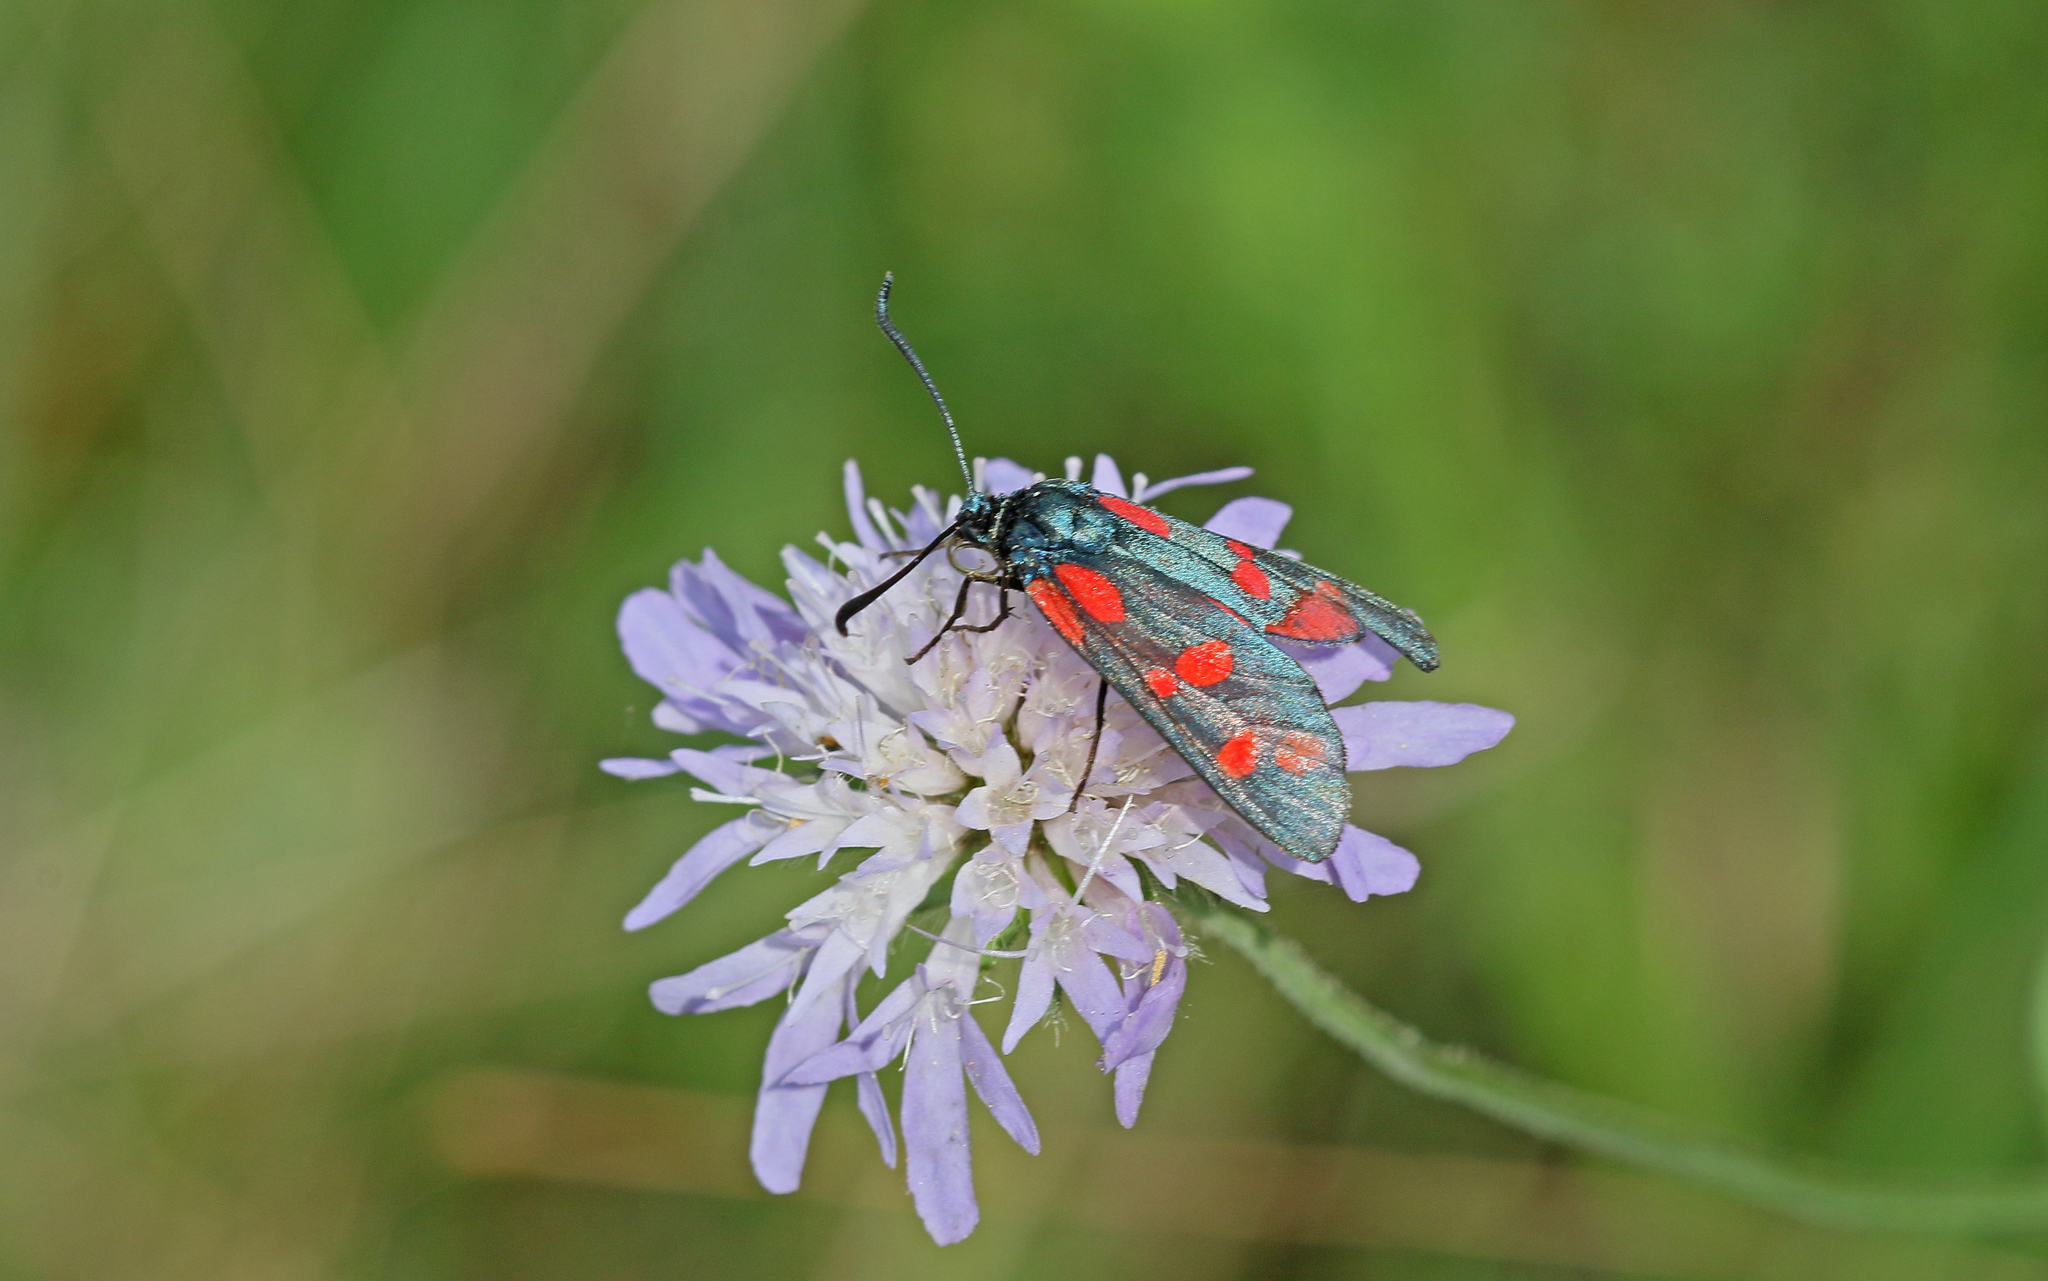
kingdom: Animalia
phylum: Arthropoda
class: Insecta
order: Lepidoptera
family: Zygaenidae
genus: Zygaena
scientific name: Zygaena filipendulae
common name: Six-spot burnet
